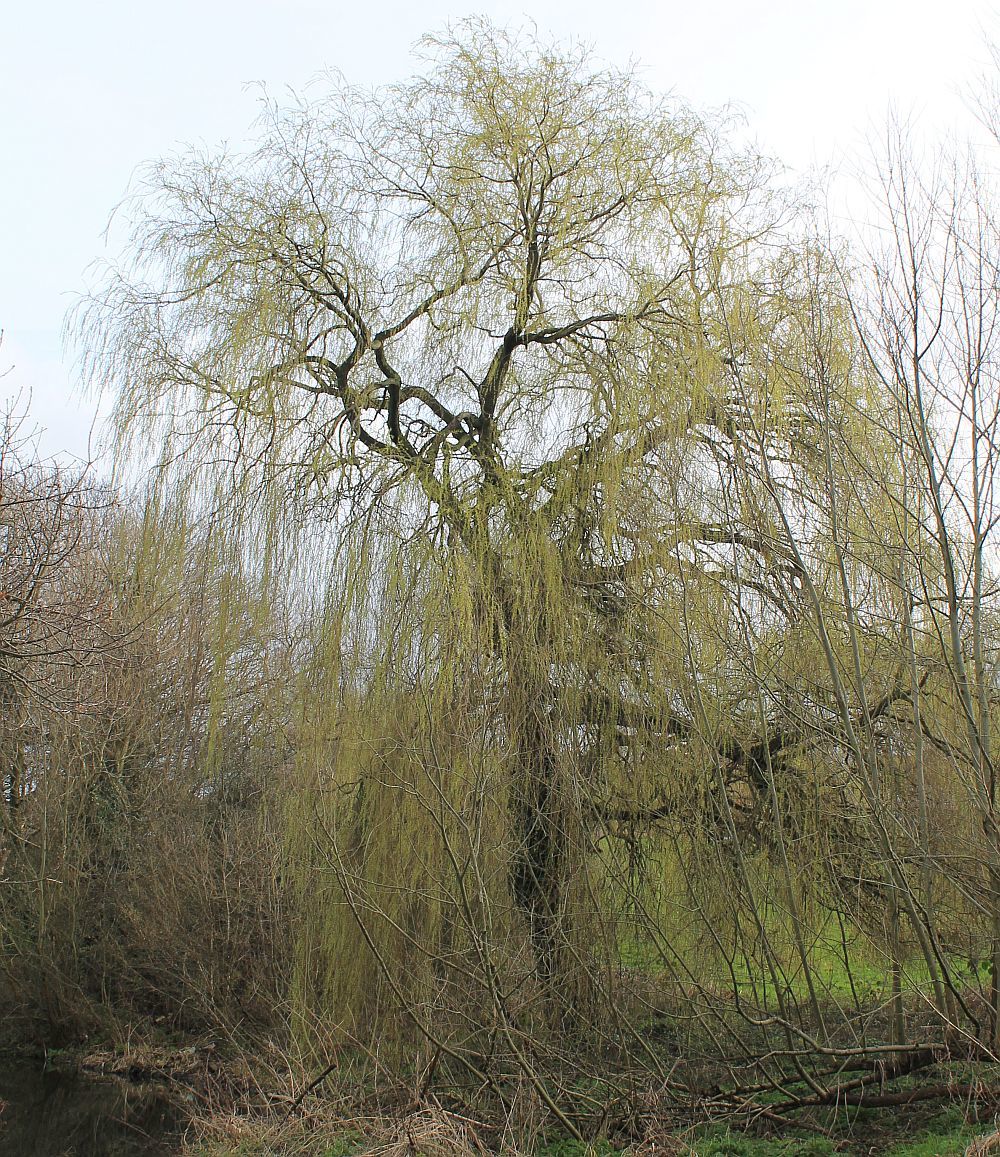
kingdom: Plantae
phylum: Tracheophyta
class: Magnoliopsida
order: Malpighiales
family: Salicaceae
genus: Salix
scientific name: Salix pendulina
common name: Wisconsin weeping willow
